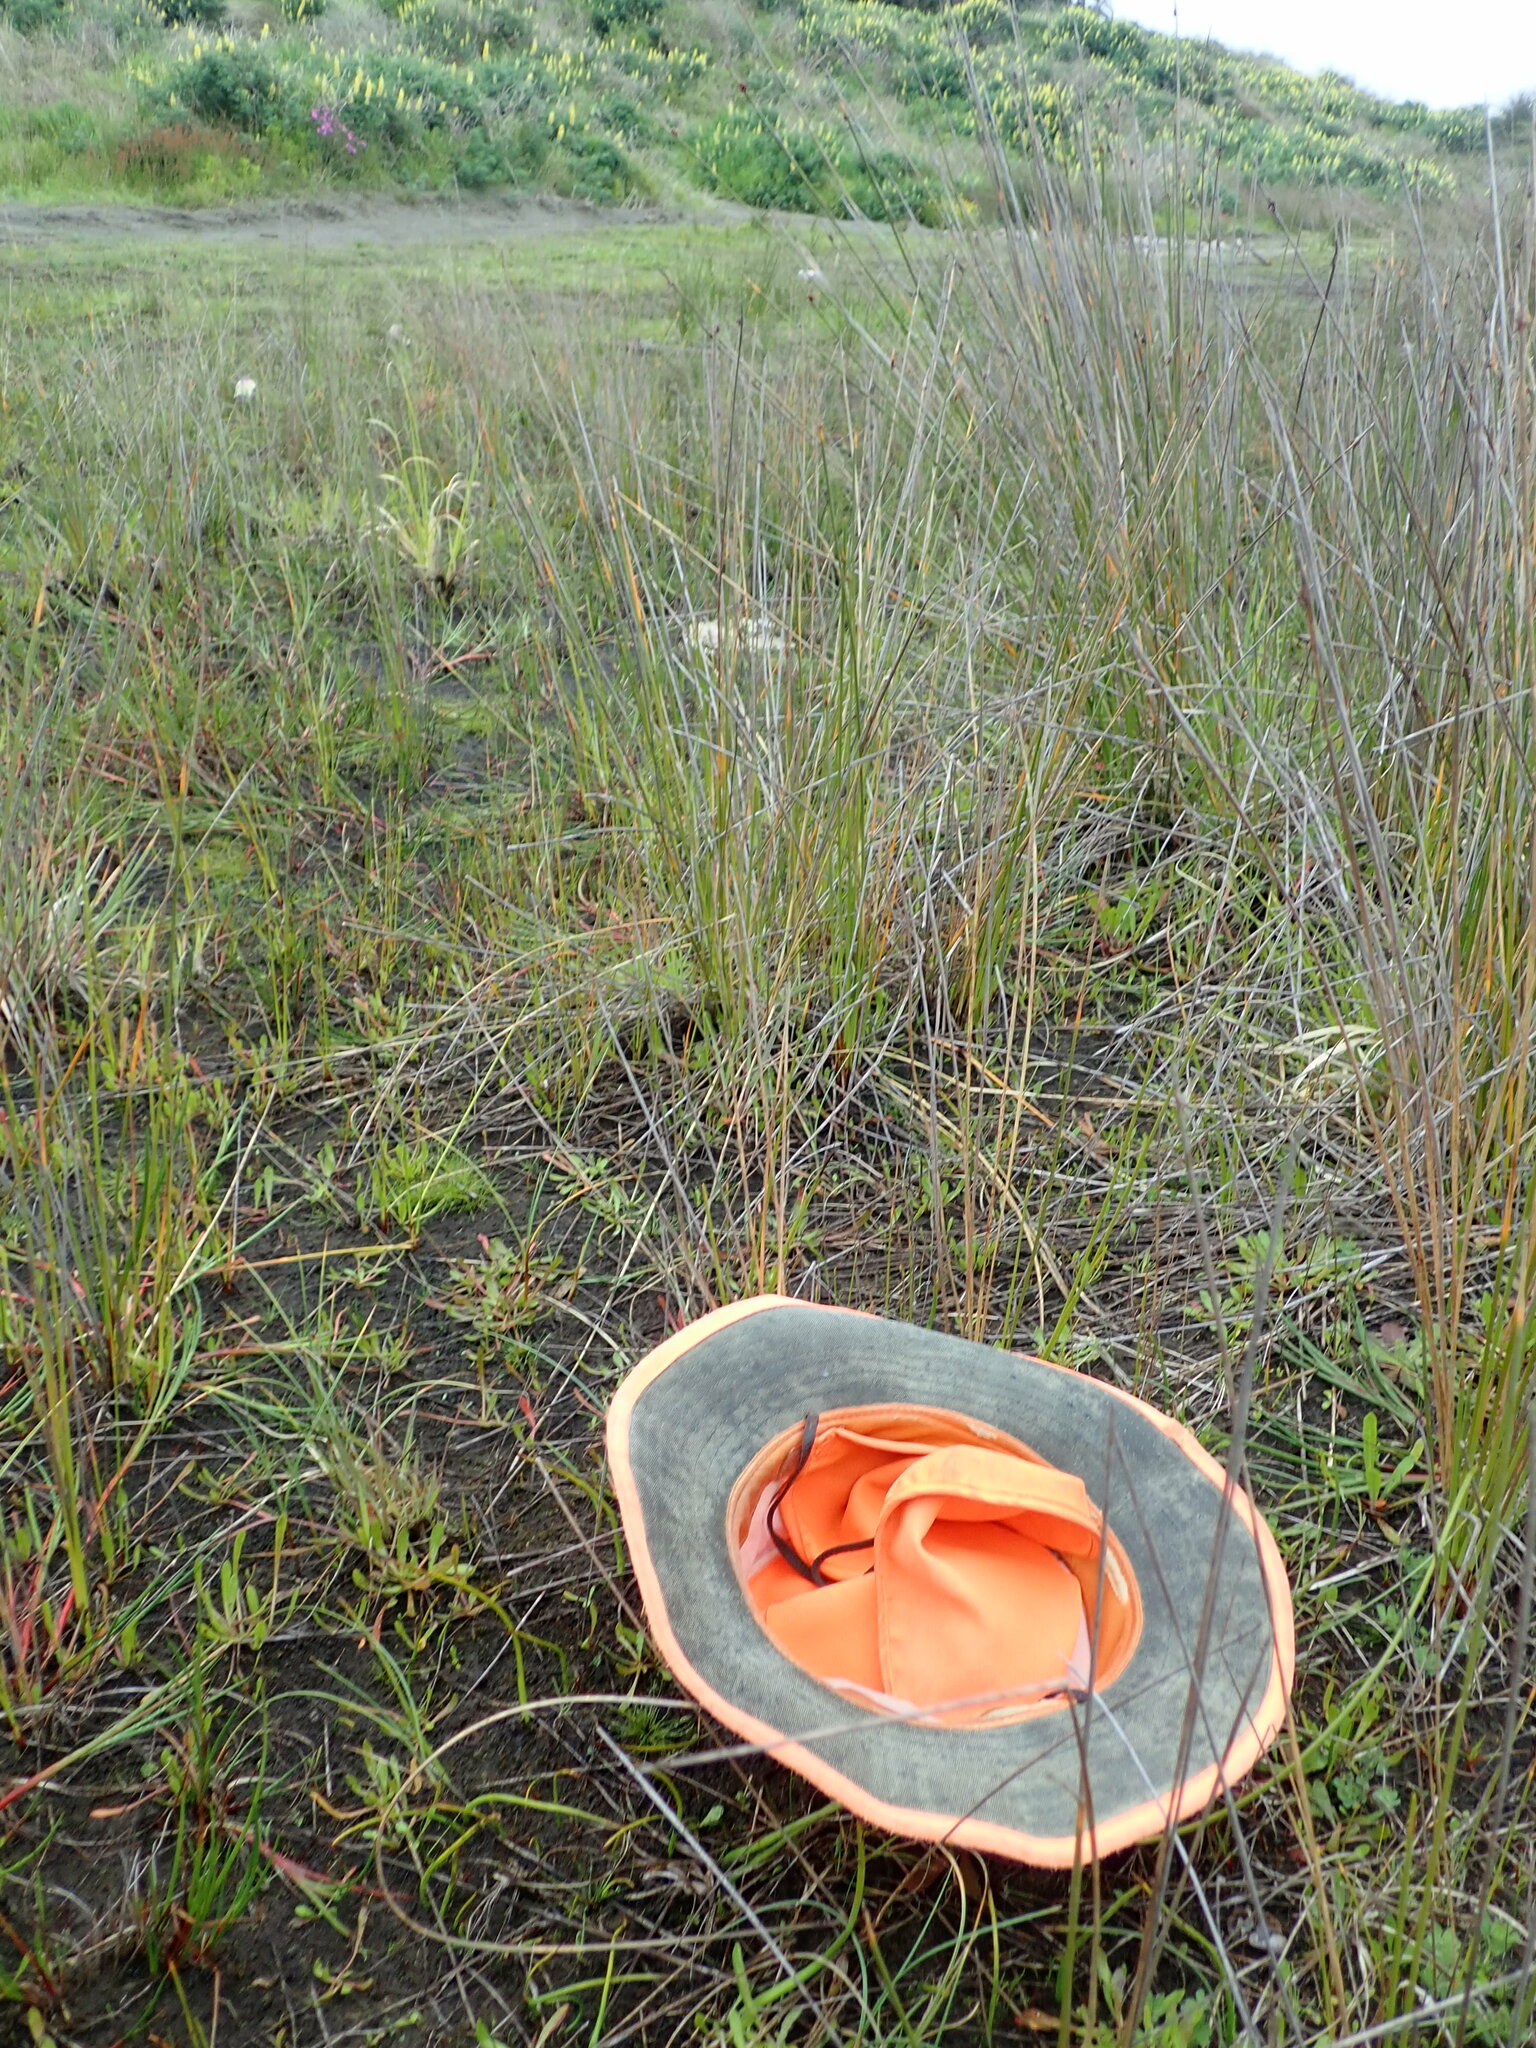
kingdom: Plantae
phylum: Tracheophyta
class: Liliopsida
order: Poales
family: Cyperaceae
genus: Isolepis
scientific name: Isolepis cernua
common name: Slender club-rush
